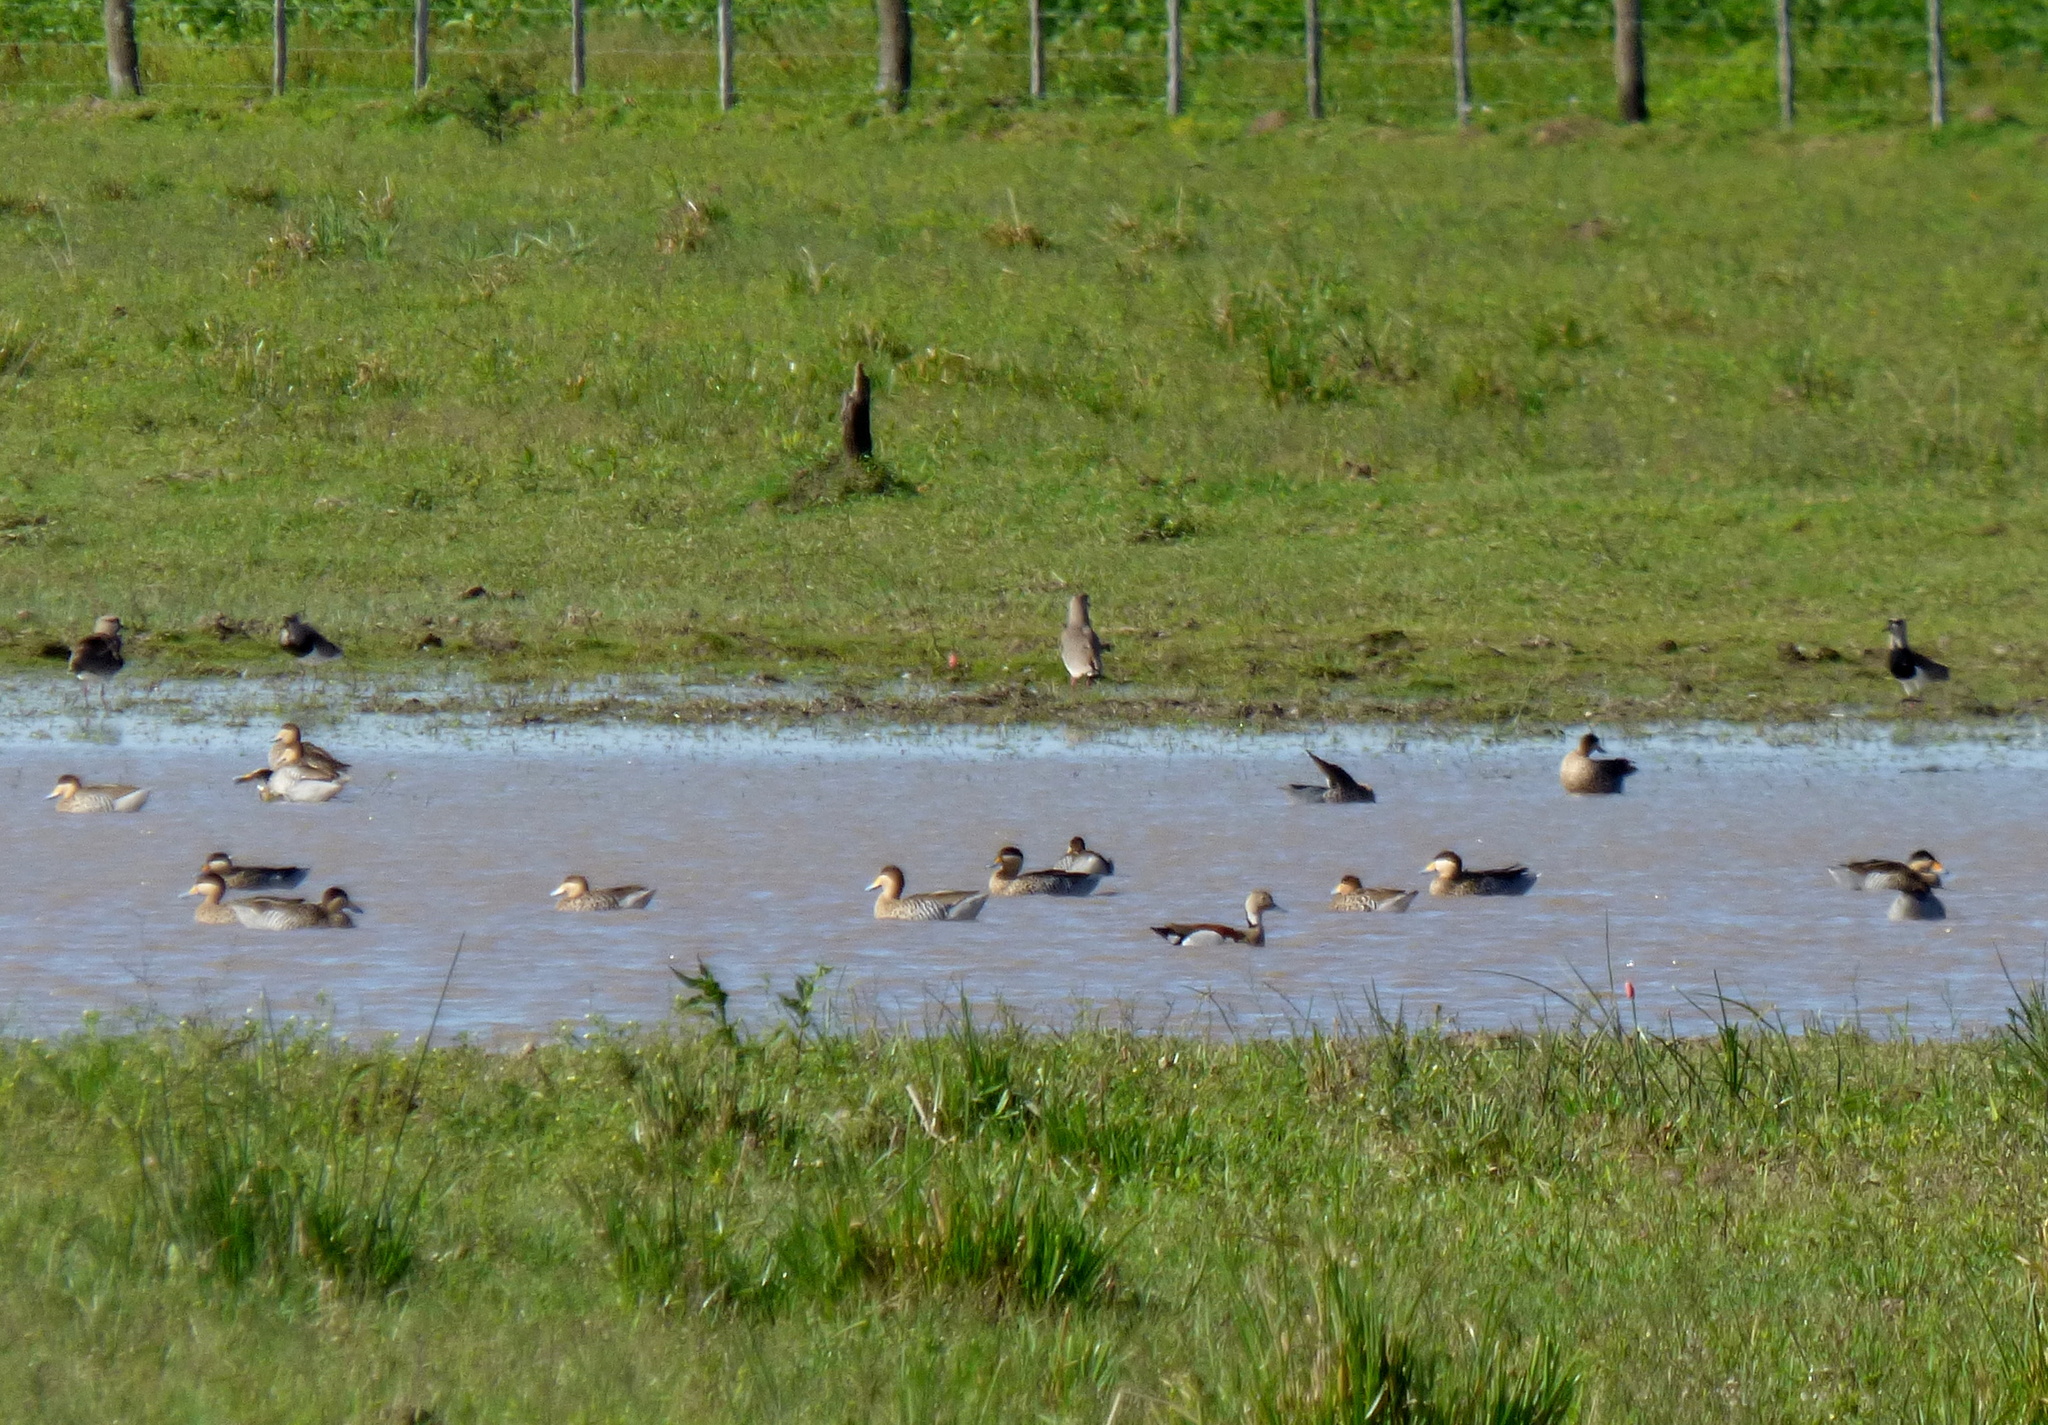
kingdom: Animalia
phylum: Chordata
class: Aves
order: Anseriformes
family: Anatidae
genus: Spatula
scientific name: Spatula versicolor
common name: Silver teal
